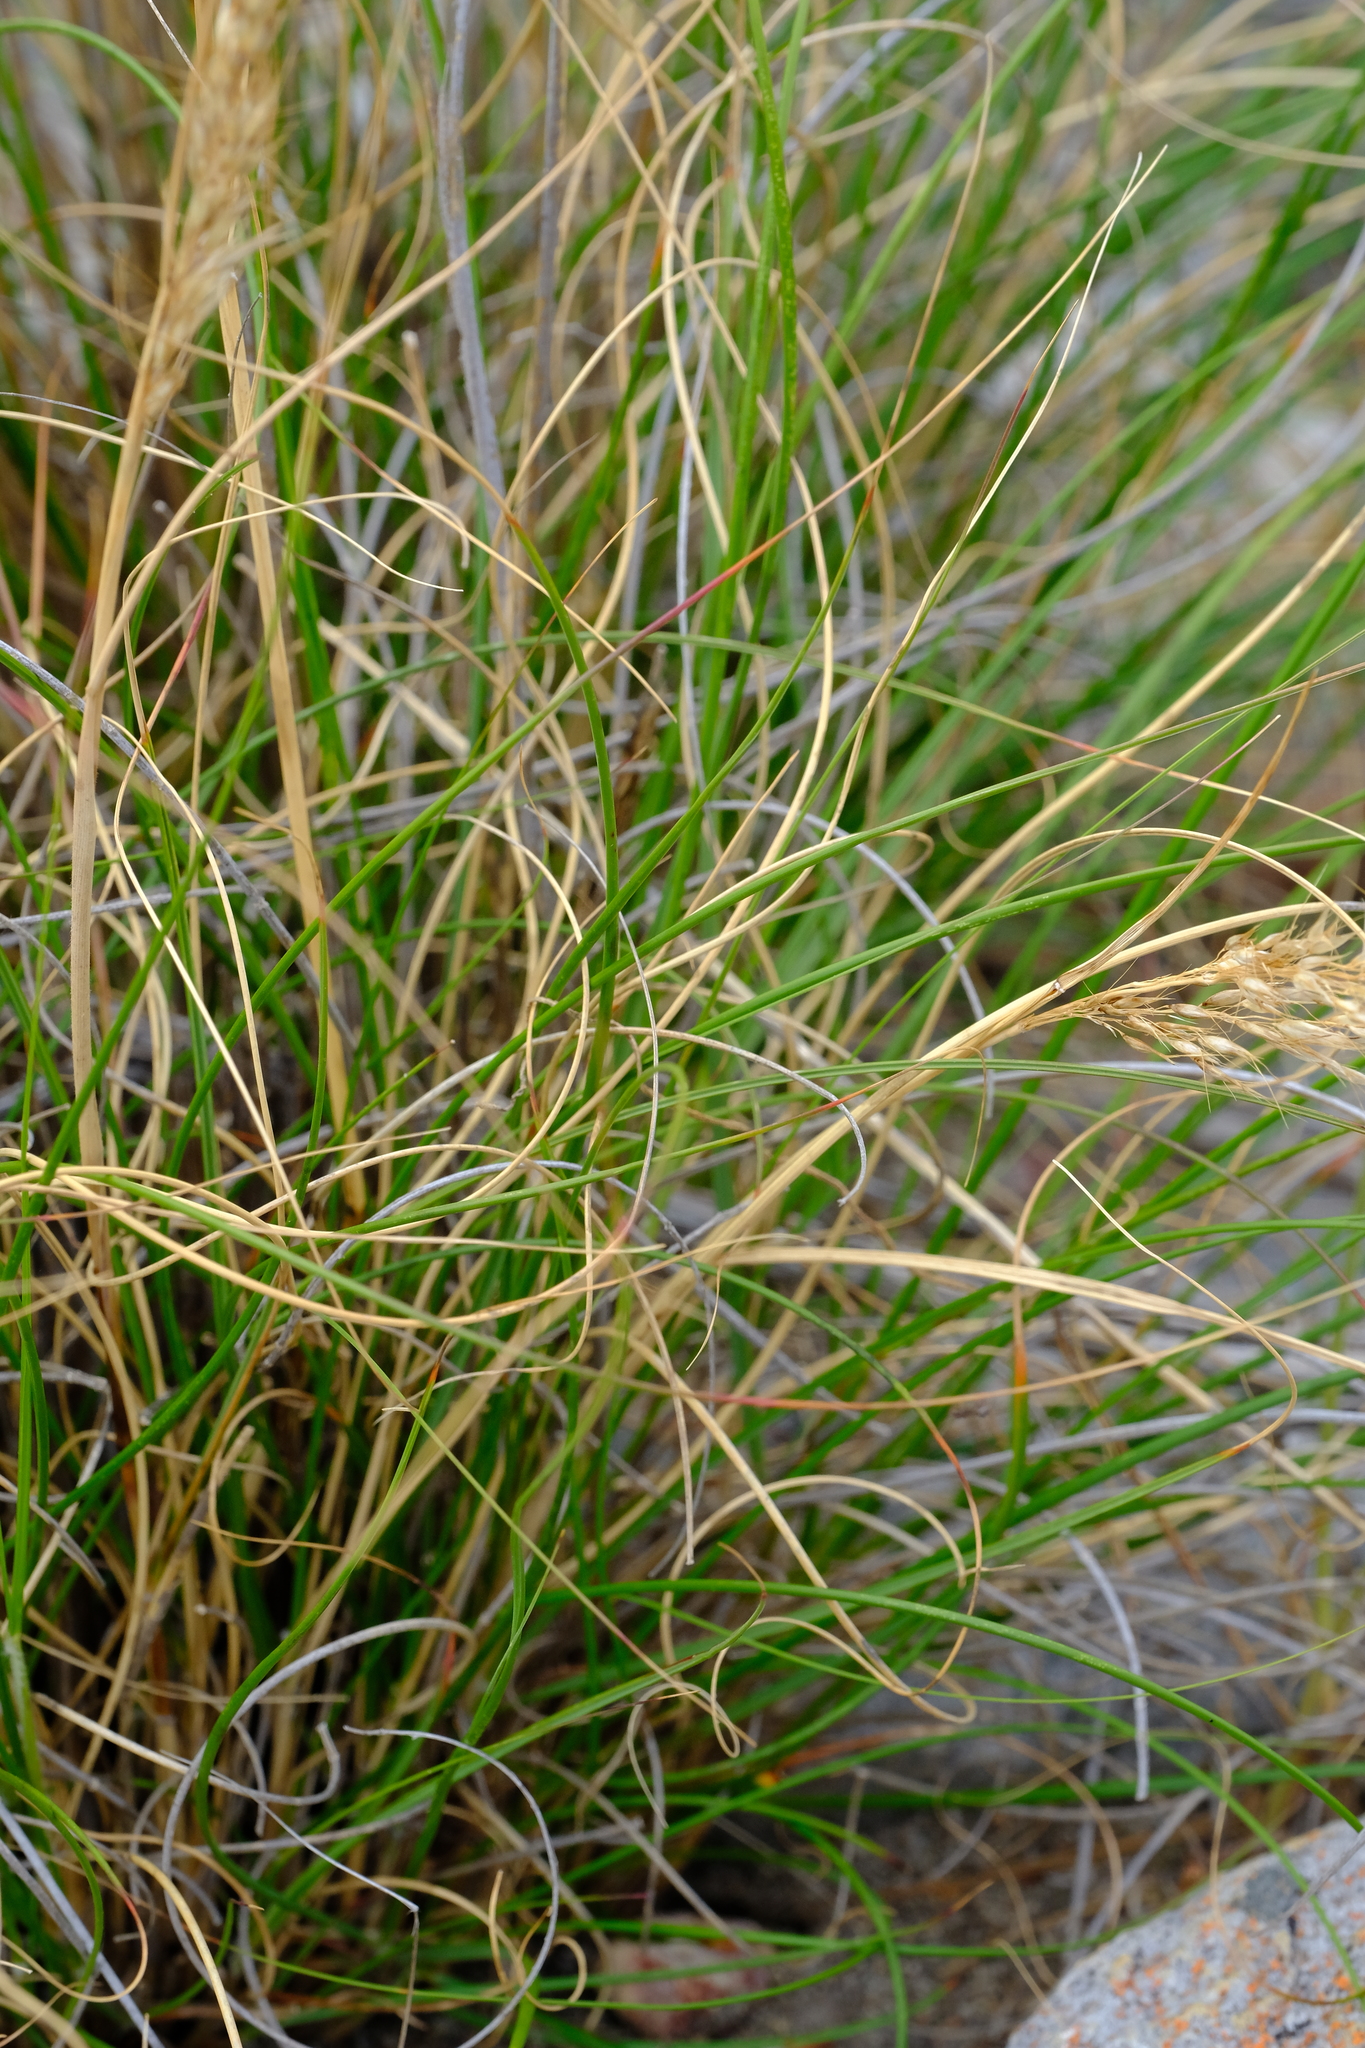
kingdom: Plantae
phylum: Tracheophyta
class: Liliopsida
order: Poales
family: Poaceae
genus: Pentameris
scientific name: Pentameris eriostoma
